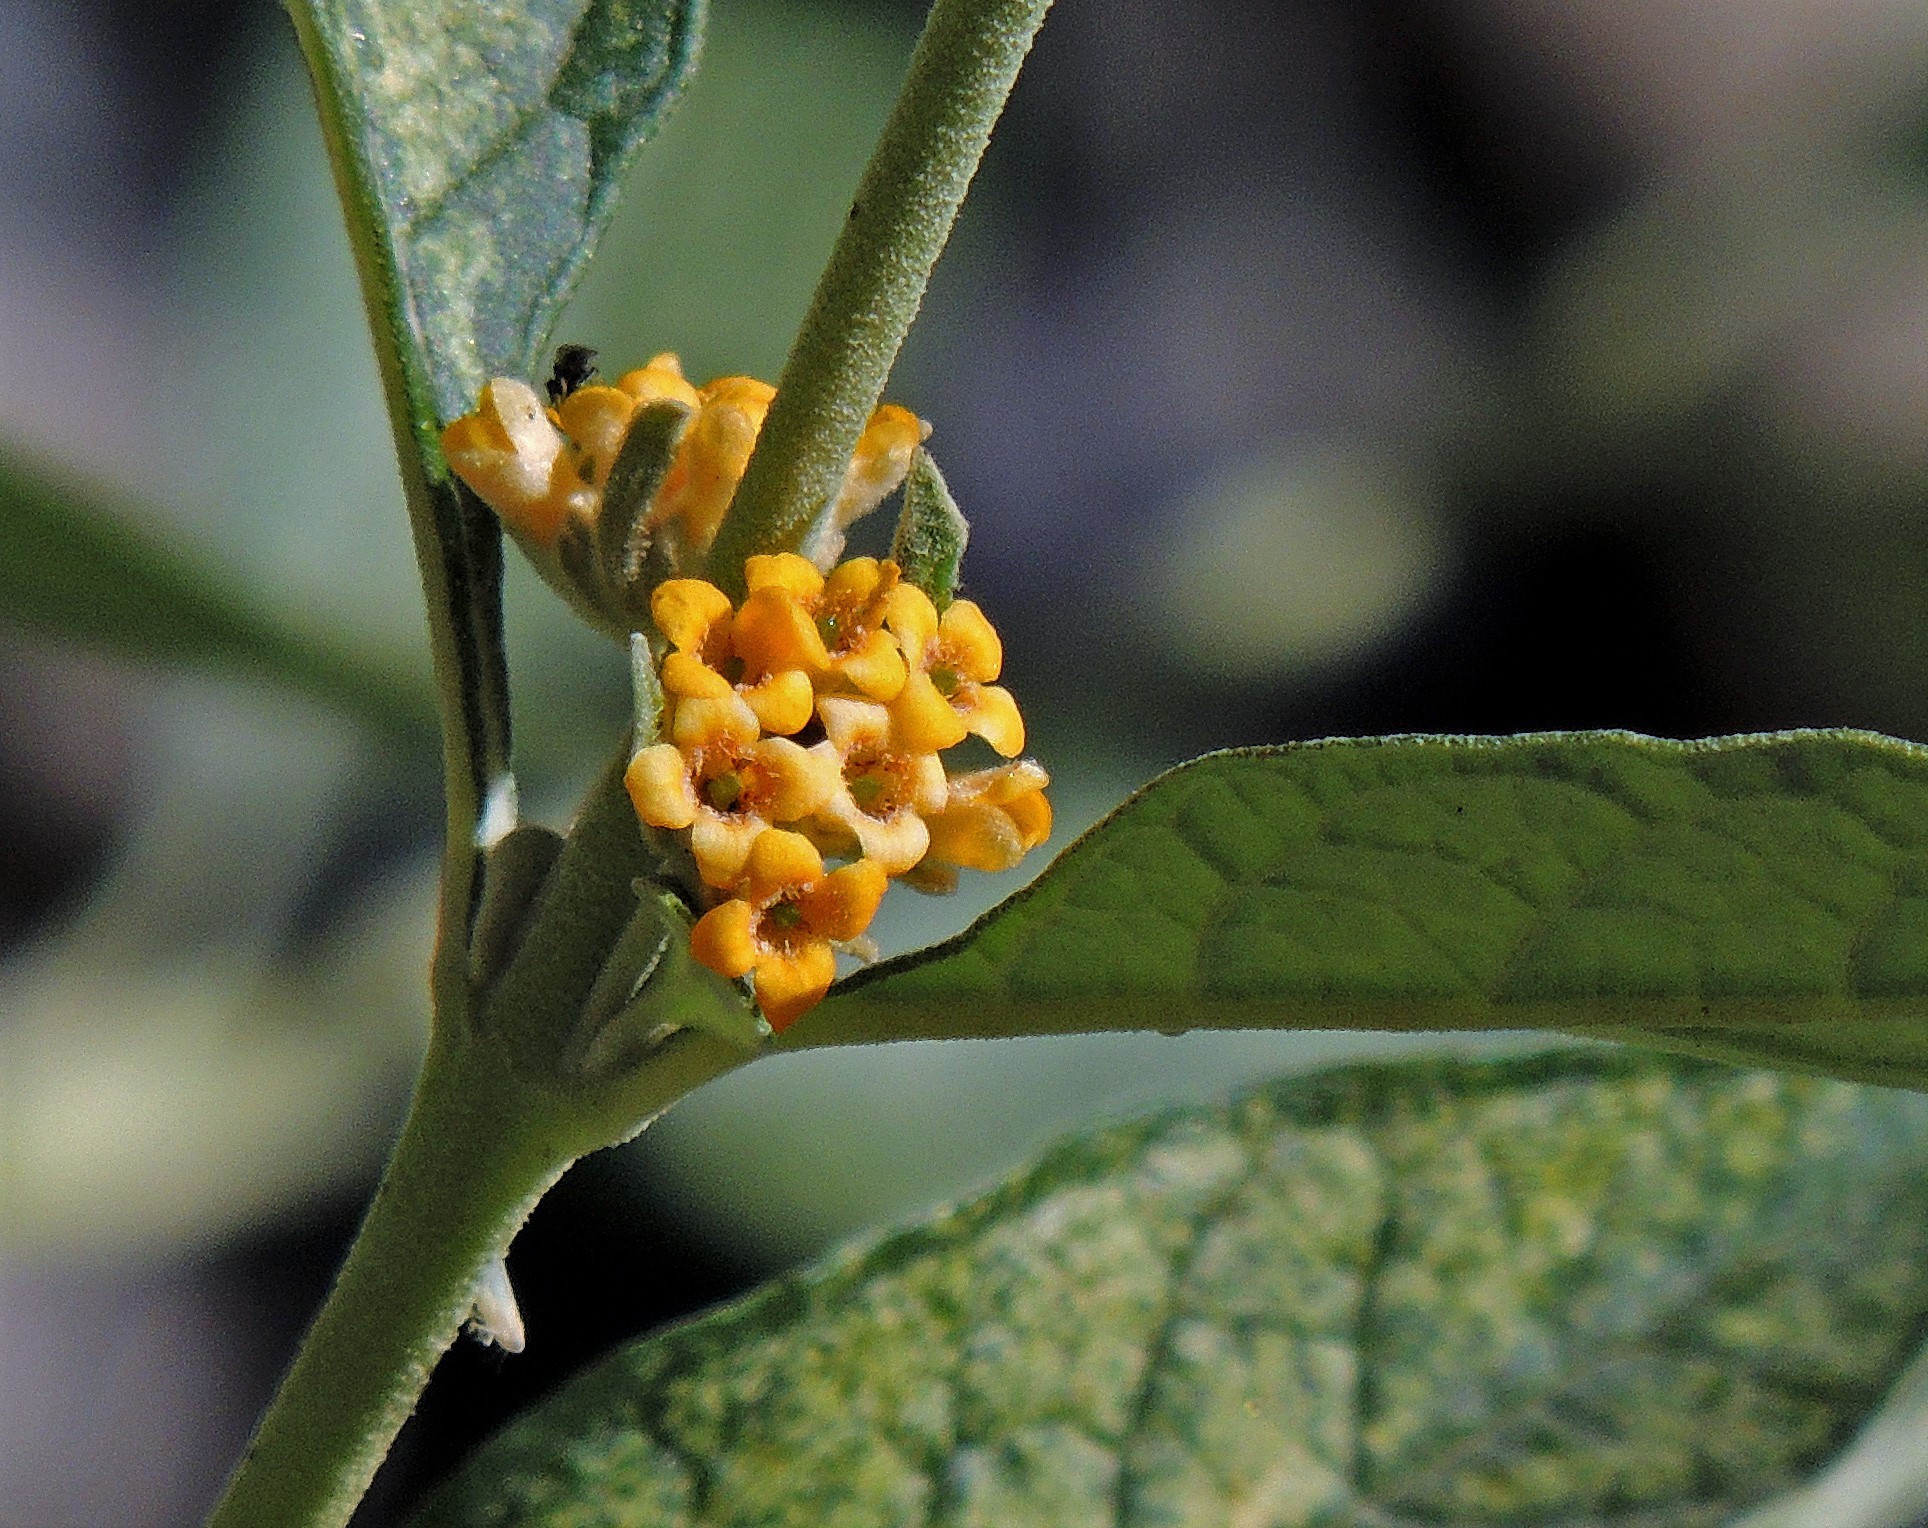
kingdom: Plantae
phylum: Tracheophyta
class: Magnoliopsida
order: Lamiales
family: Scrophulariaceae
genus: Buddleja
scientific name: Buddleja tucumanensis
